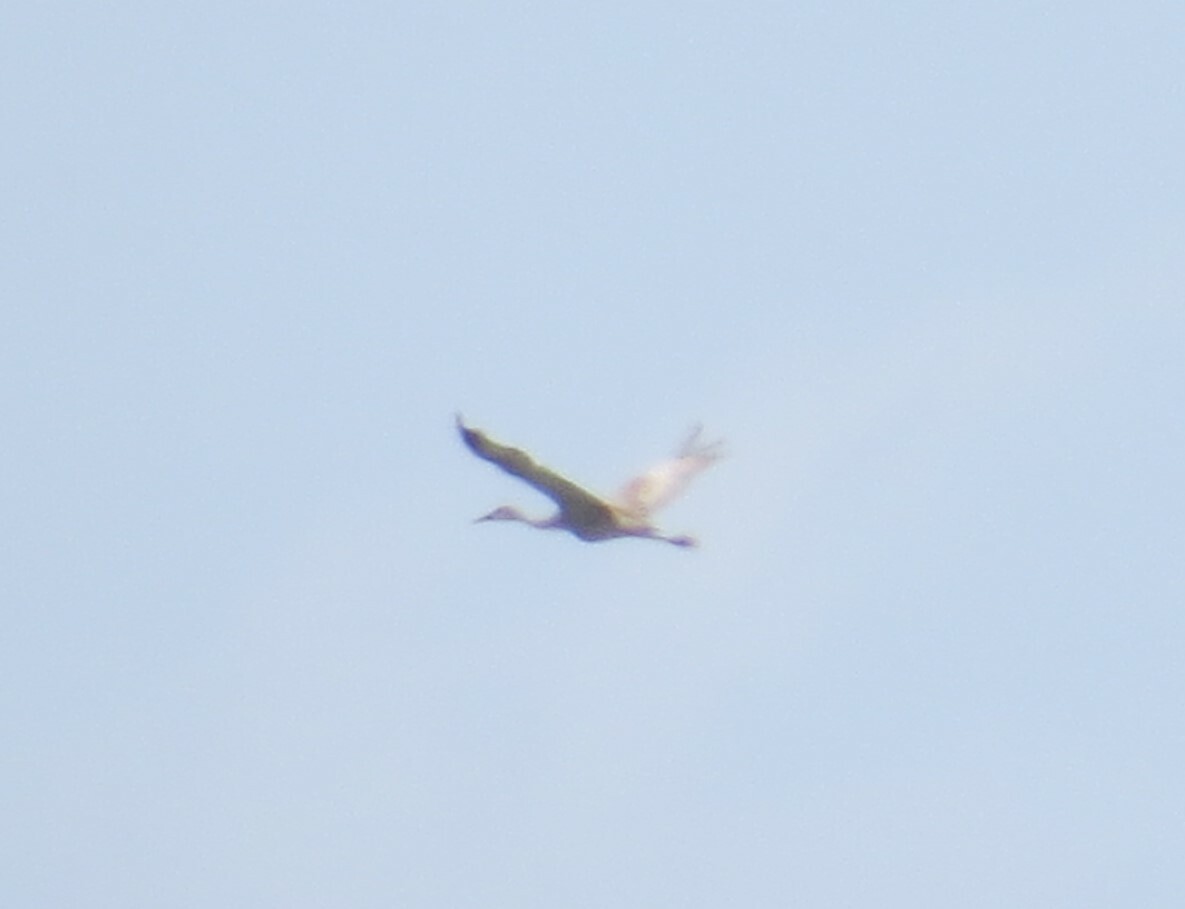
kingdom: Animalia
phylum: Chordata
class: Aves
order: Gruiformes
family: Gruidae
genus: Grus
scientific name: Grus canadensis
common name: Sandhill crane
